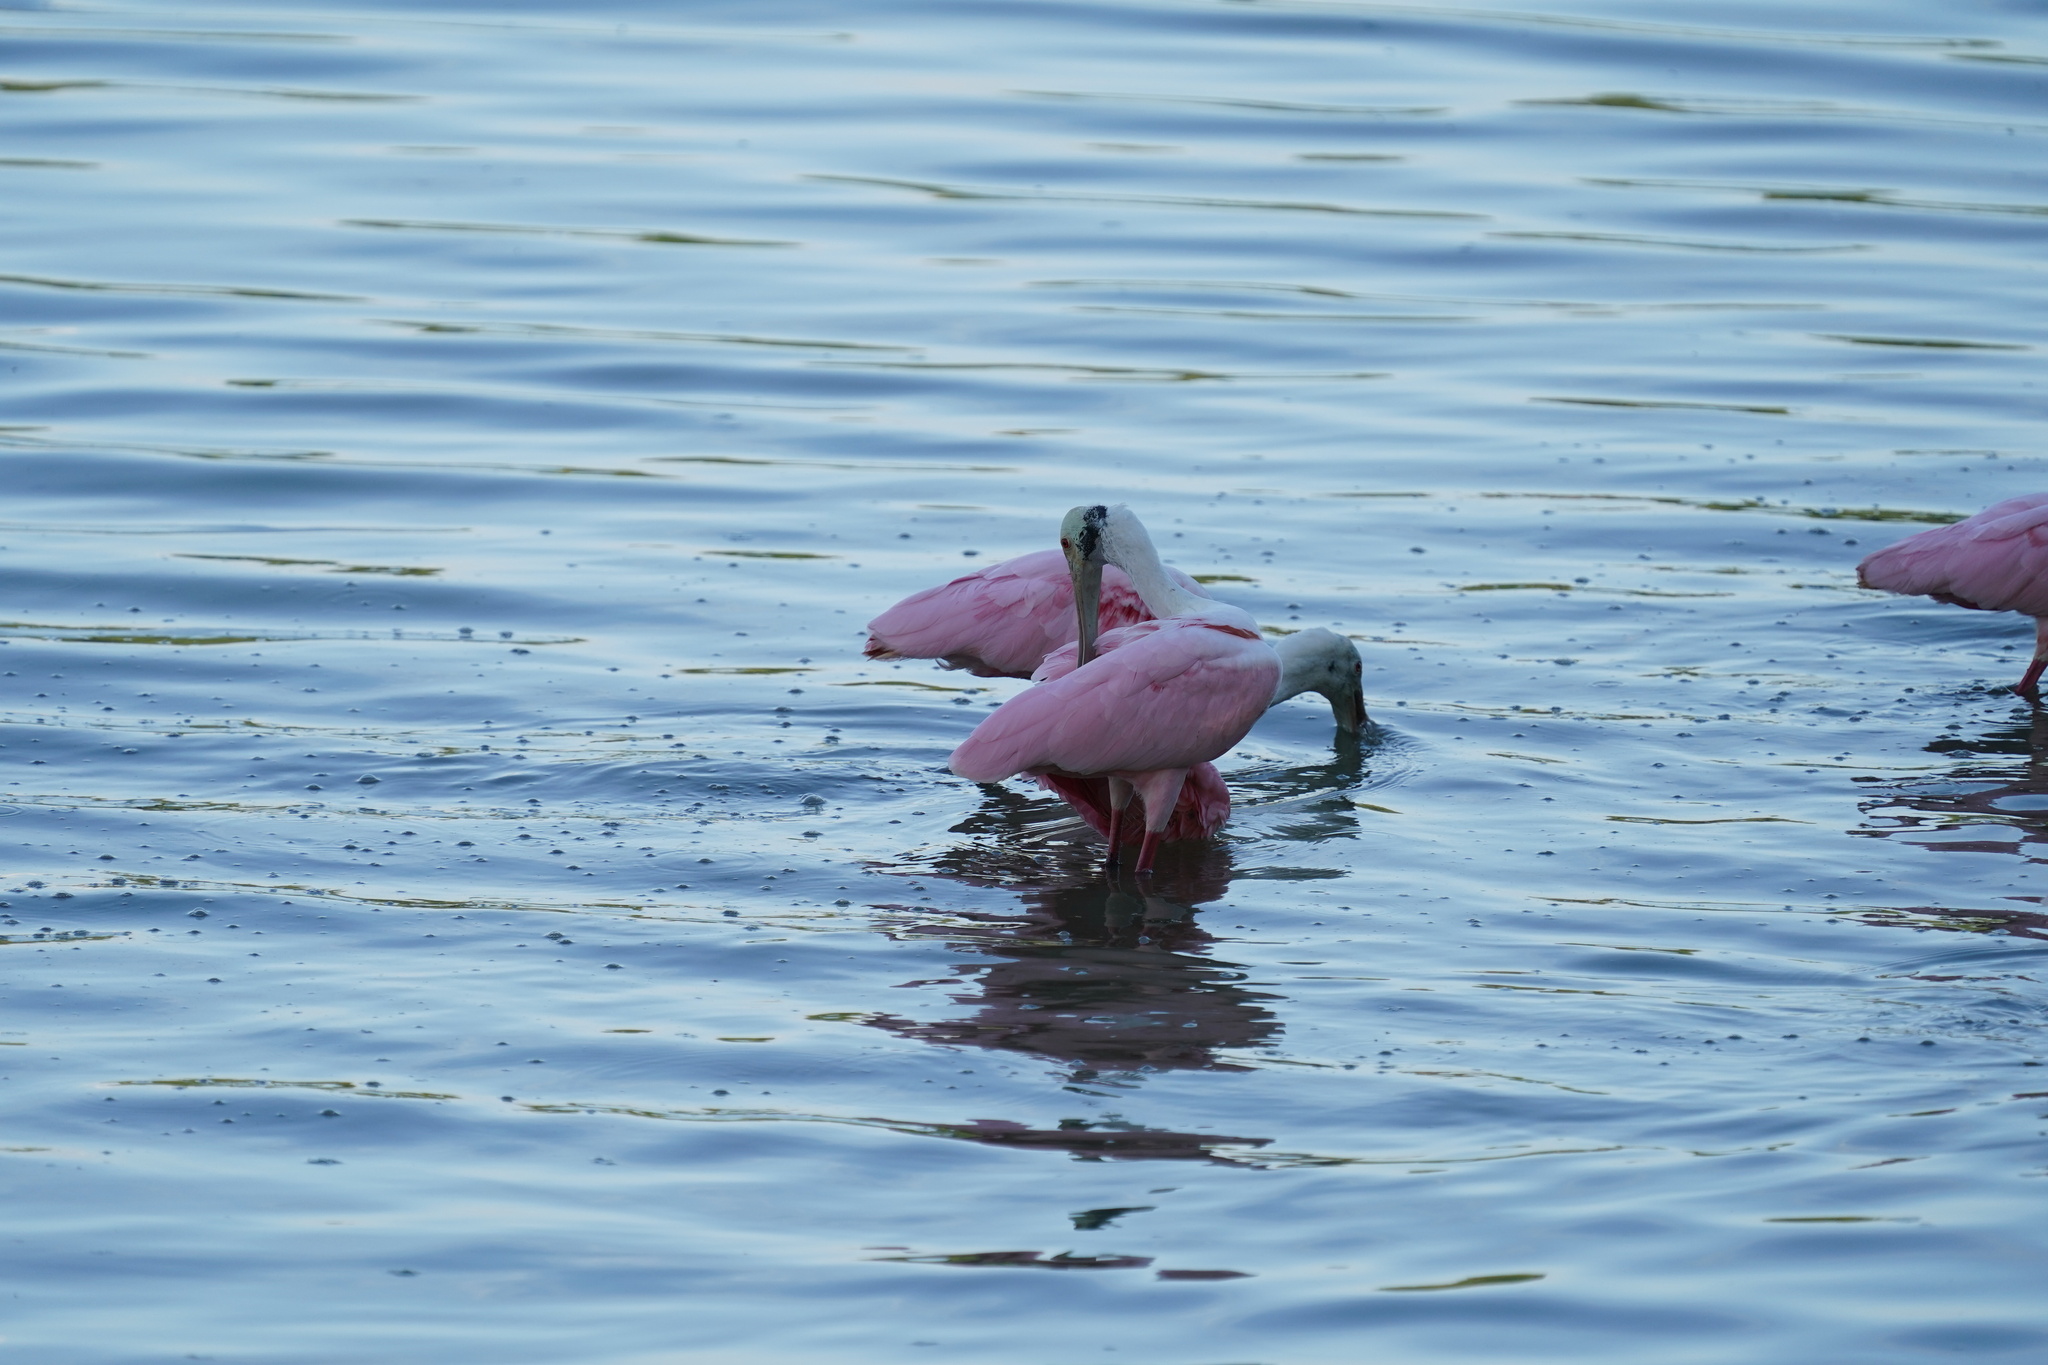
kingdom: Animalia
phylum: Chordata
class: Aves
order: Pelecaniformes
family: Threskiornithidae
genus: Platalea
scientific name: Platalea ajaja
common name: Roseate spoonbill
